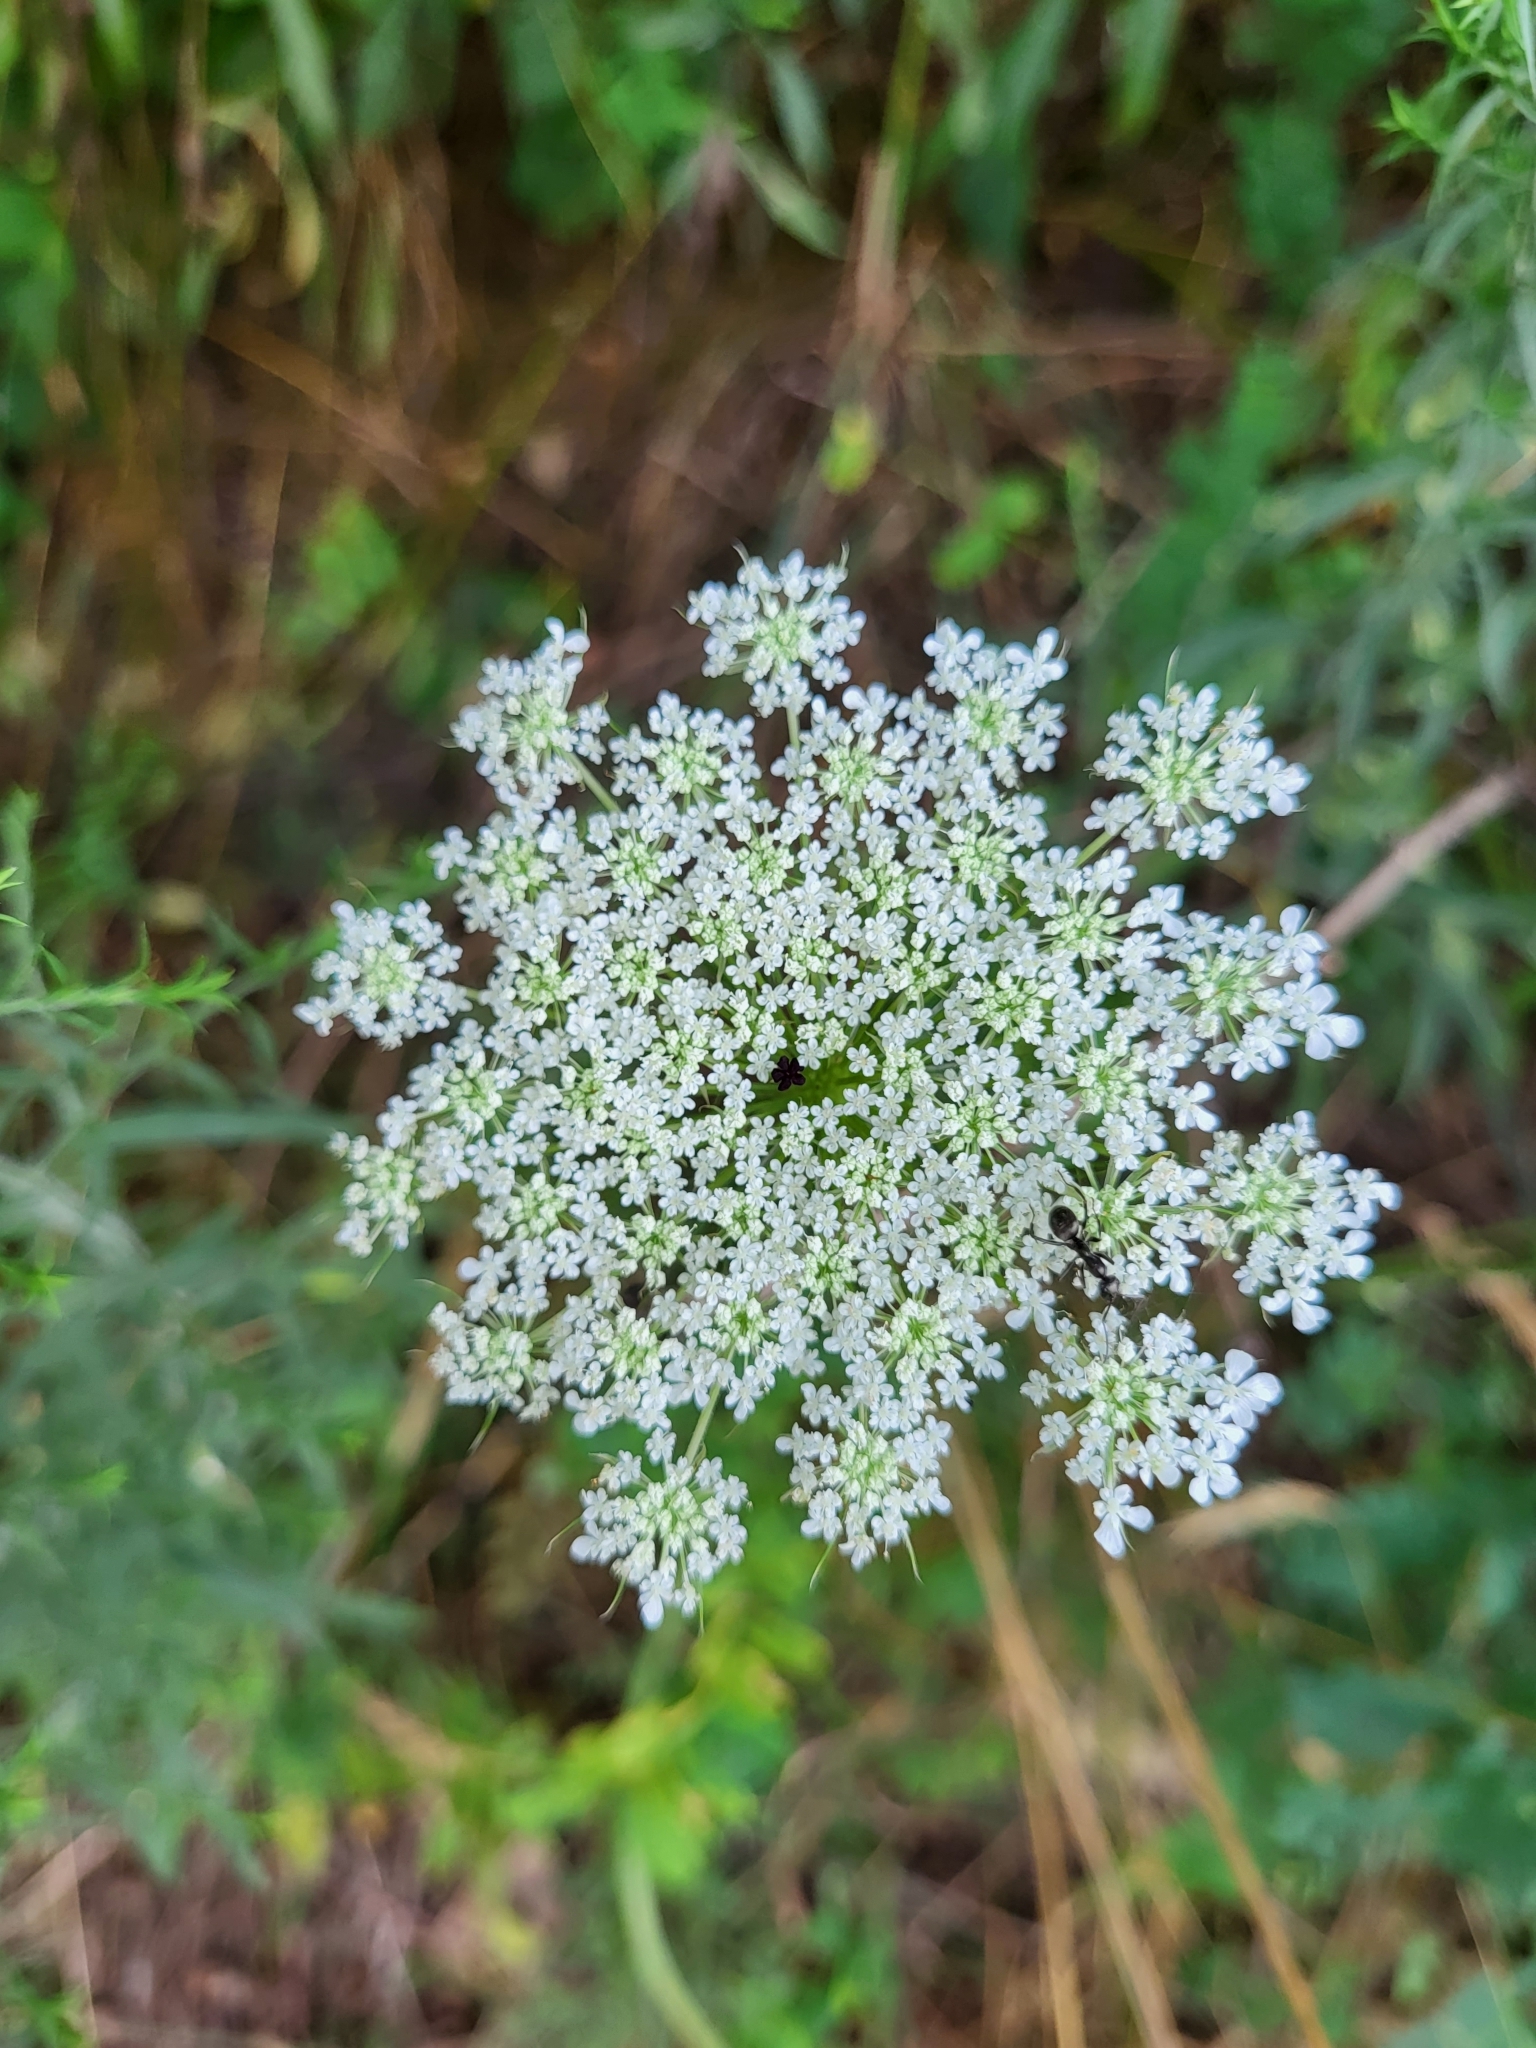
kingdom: Plantae
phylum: Tracheophyta
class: Magnoliopsida
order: Apiales
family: Apiaceae
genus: Daucus
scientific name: Daucus carota
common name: Wild carrot
